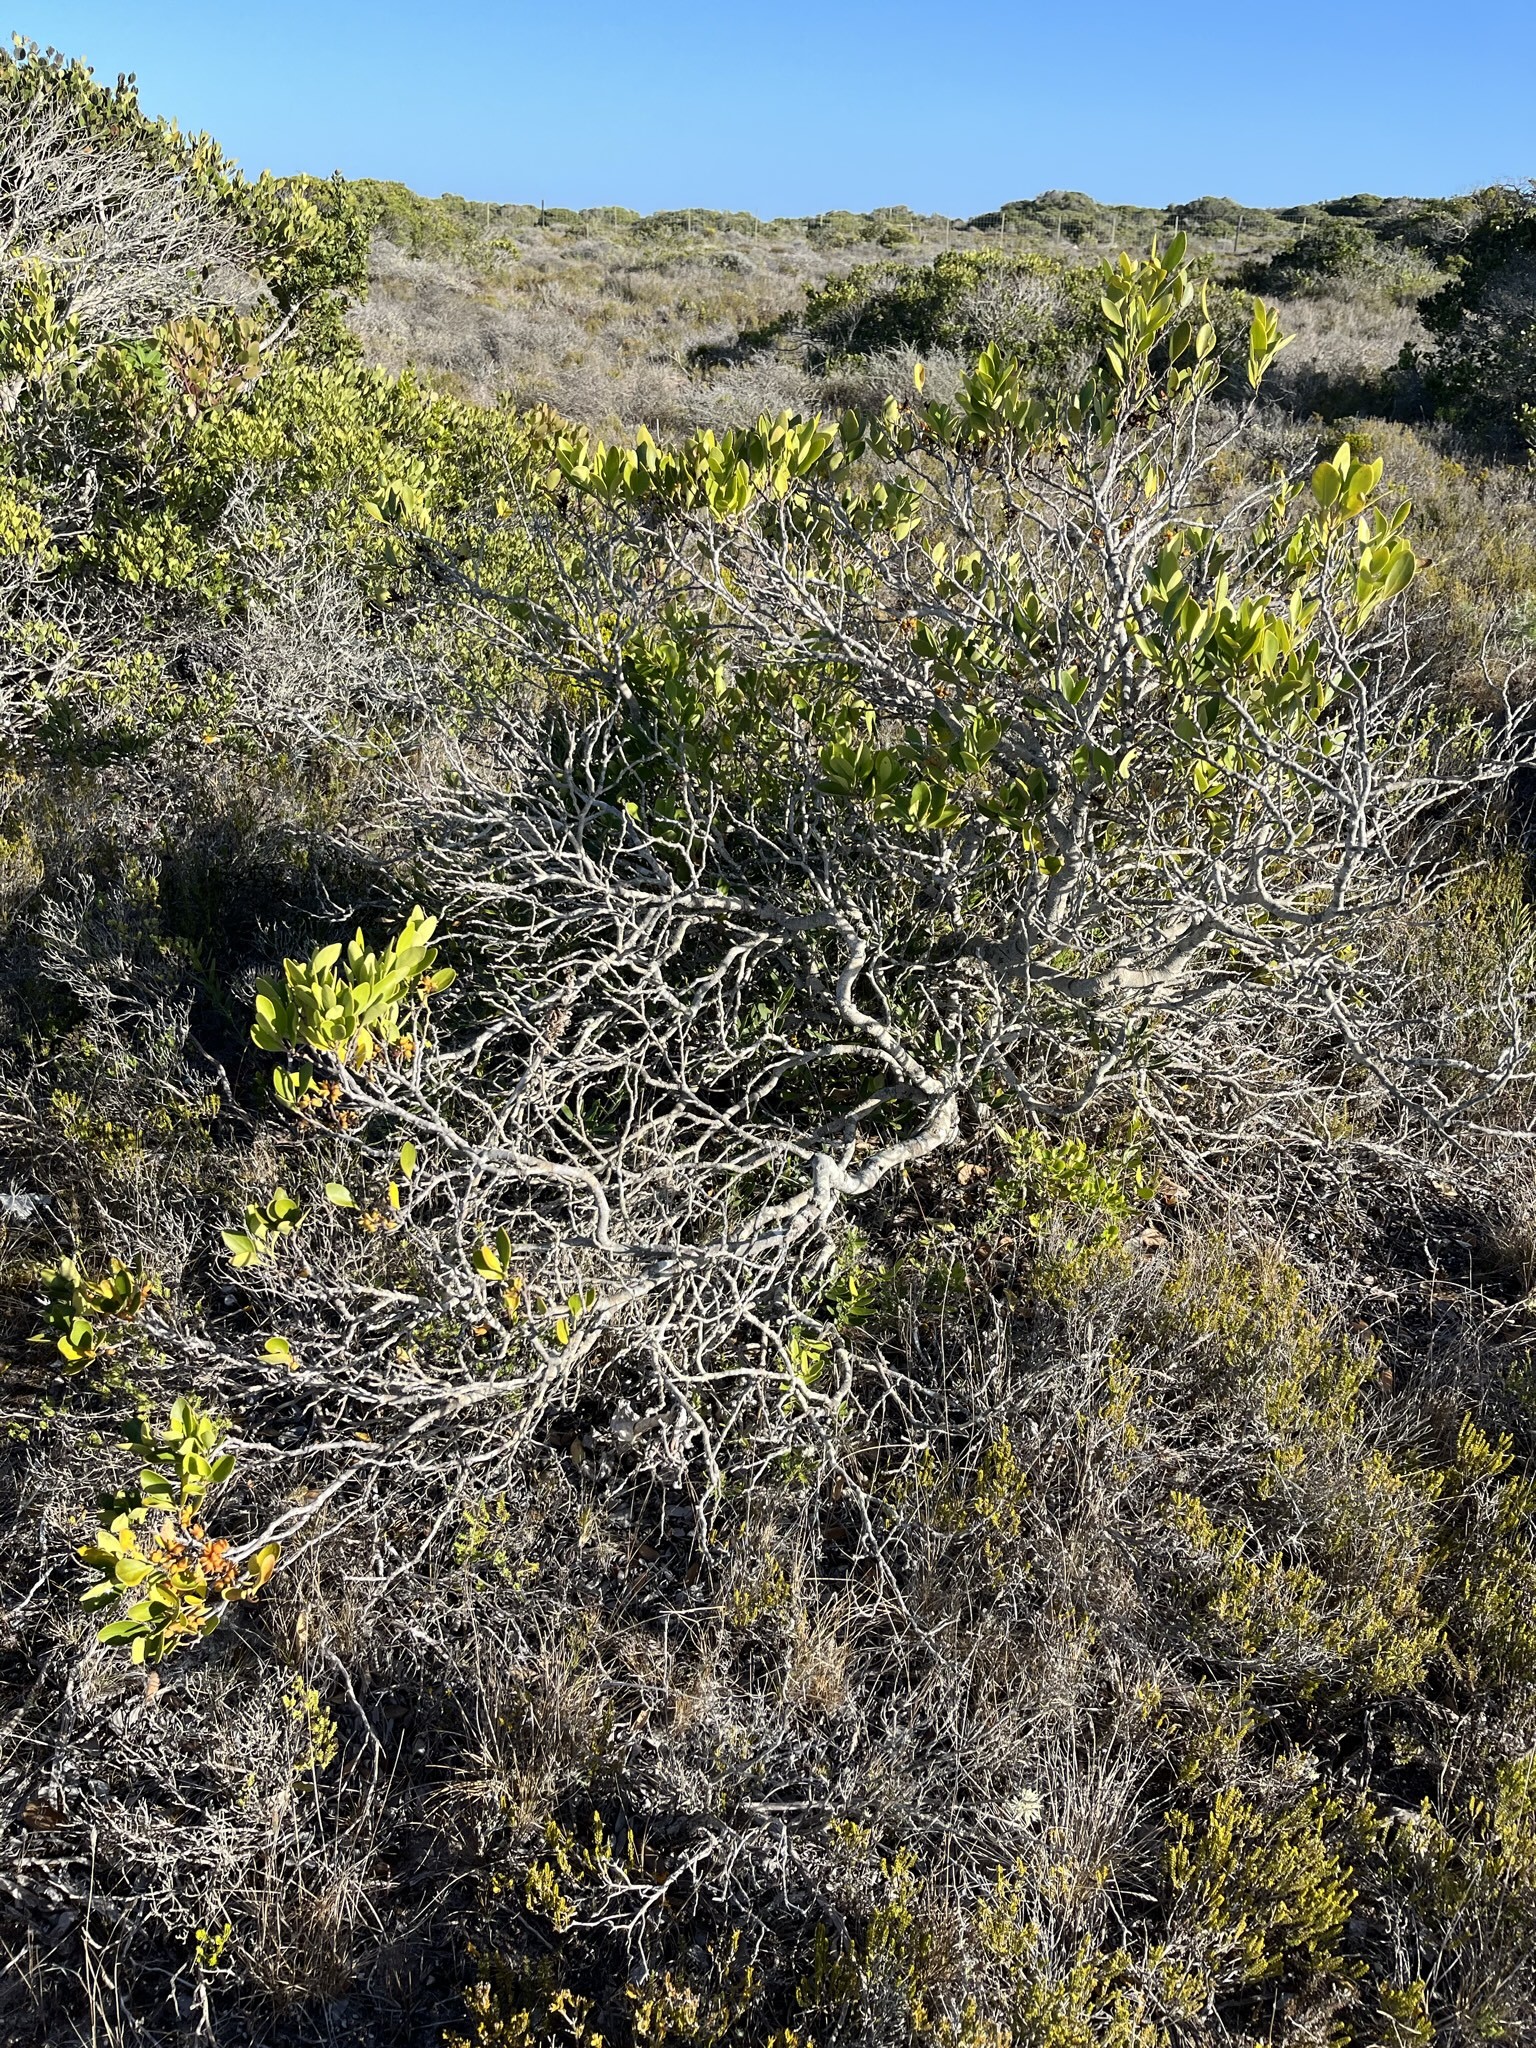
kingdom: Plantae
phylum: Tracheophyta
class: Magnoliopsida
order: Celastrales
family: Celastraceae
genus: Pterocelastrus
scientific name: Pterocelastrus tricuspidatus
